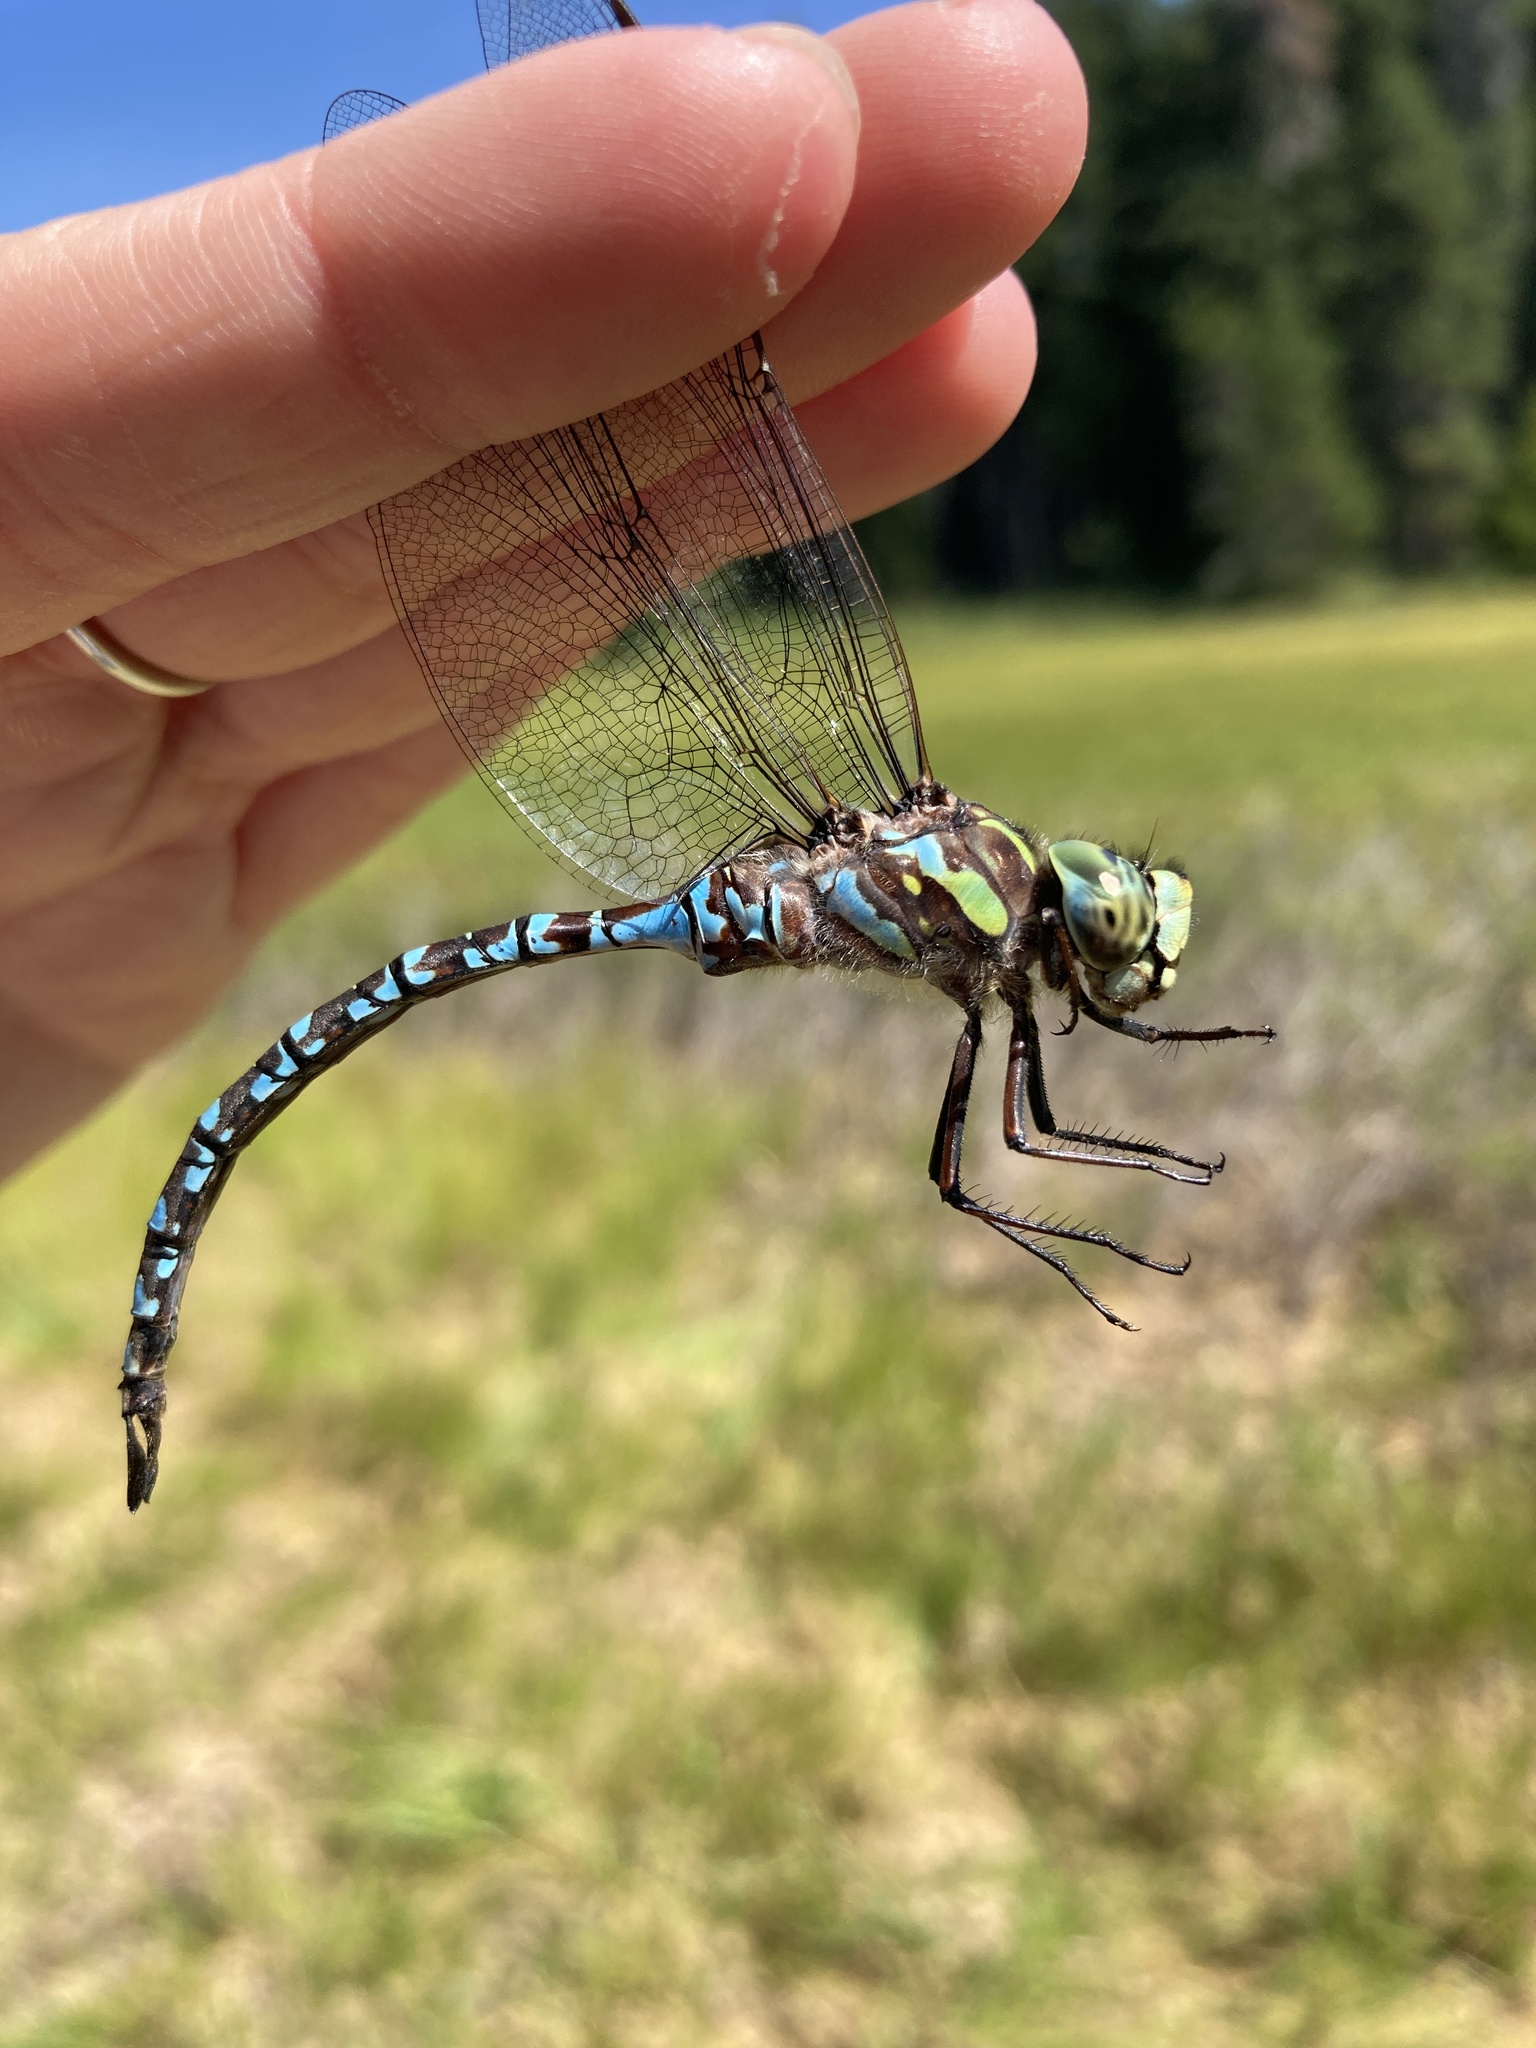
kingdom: Animalia
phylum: Arthropoda
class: Insecta
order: Odonata
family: Aeshnidae
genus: Aeshna
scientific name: Aeshna canadensis
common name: Canada darner
